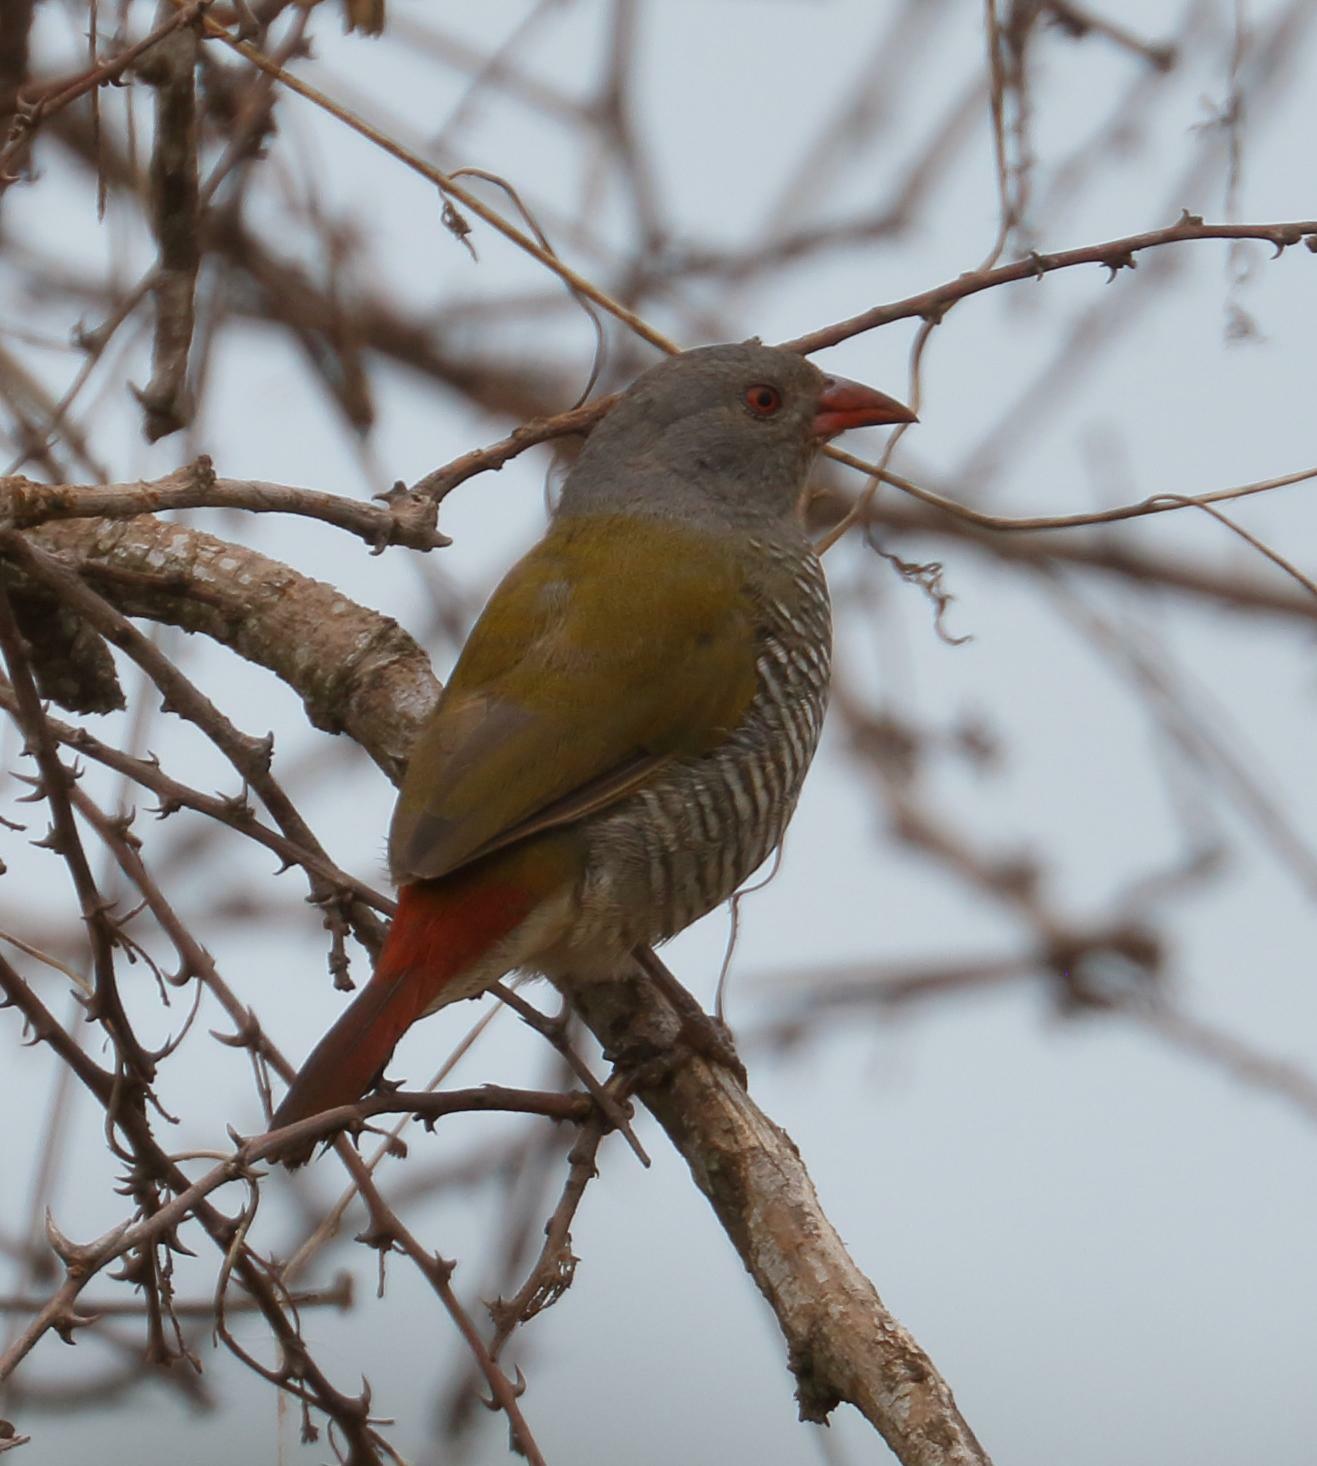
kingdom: Animalia
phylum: Chordata
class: Aves
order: Passeriformes
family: Estrildidae
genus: Pytilia
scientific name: Pytilia melba
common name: Green-winged pytilia
